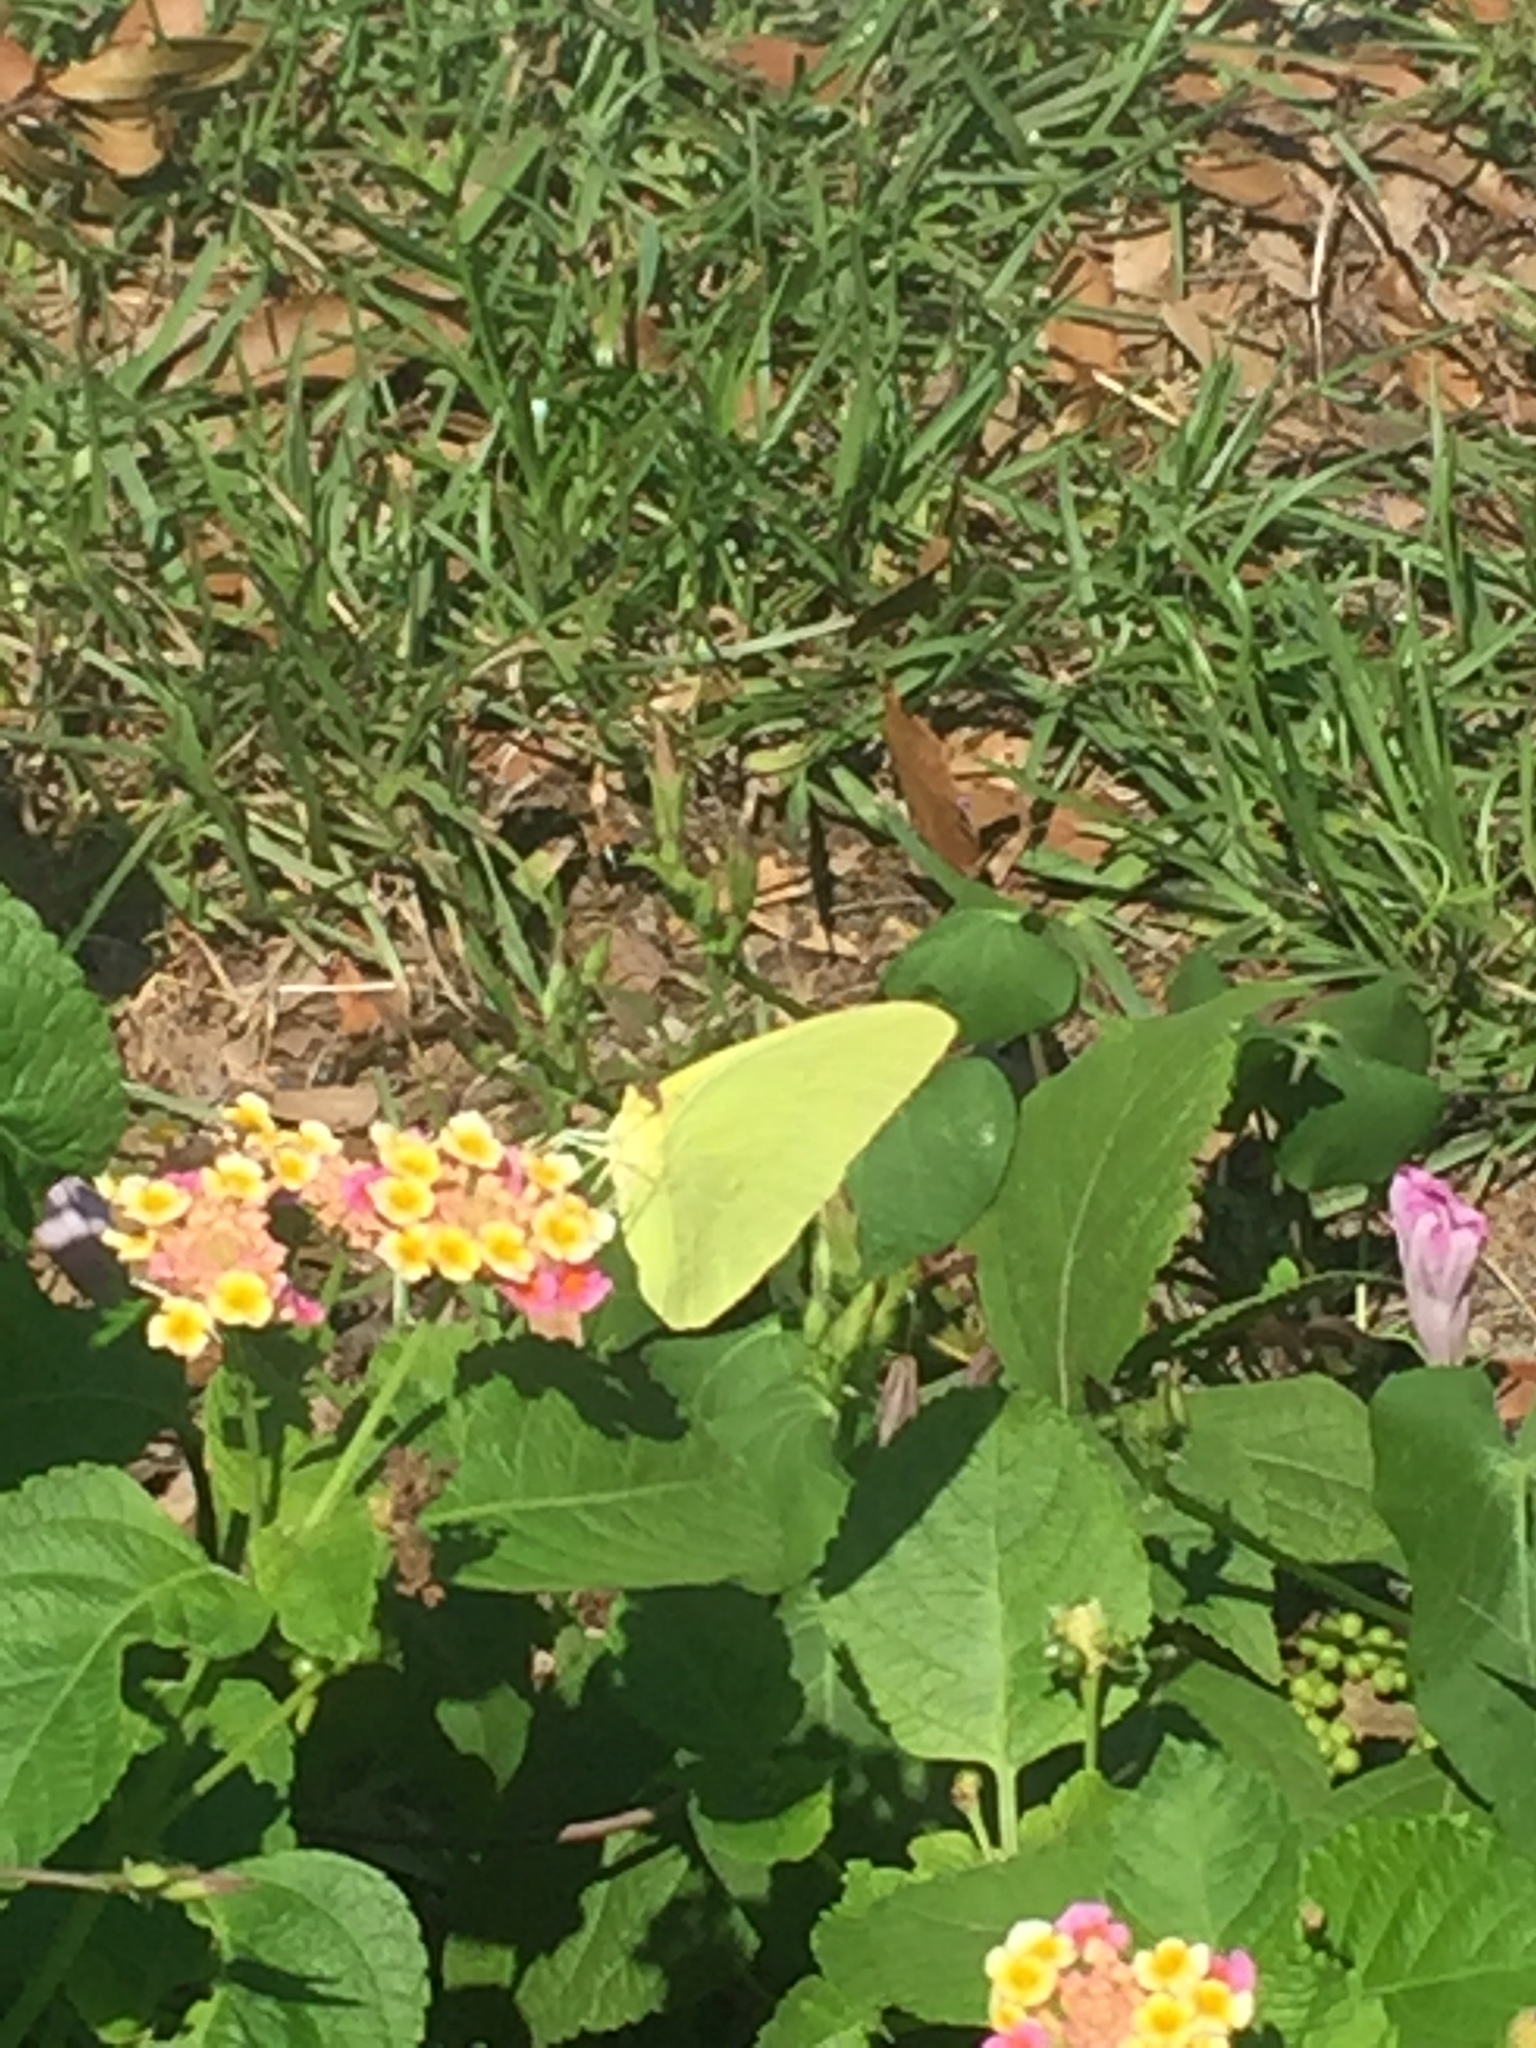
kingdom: Animalia
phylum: Arthropoda
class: Insecta
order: Lepidoptera
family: Pieridae
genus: Phoebis
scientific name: Phoebis sennae
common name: Cloudless sulphur
